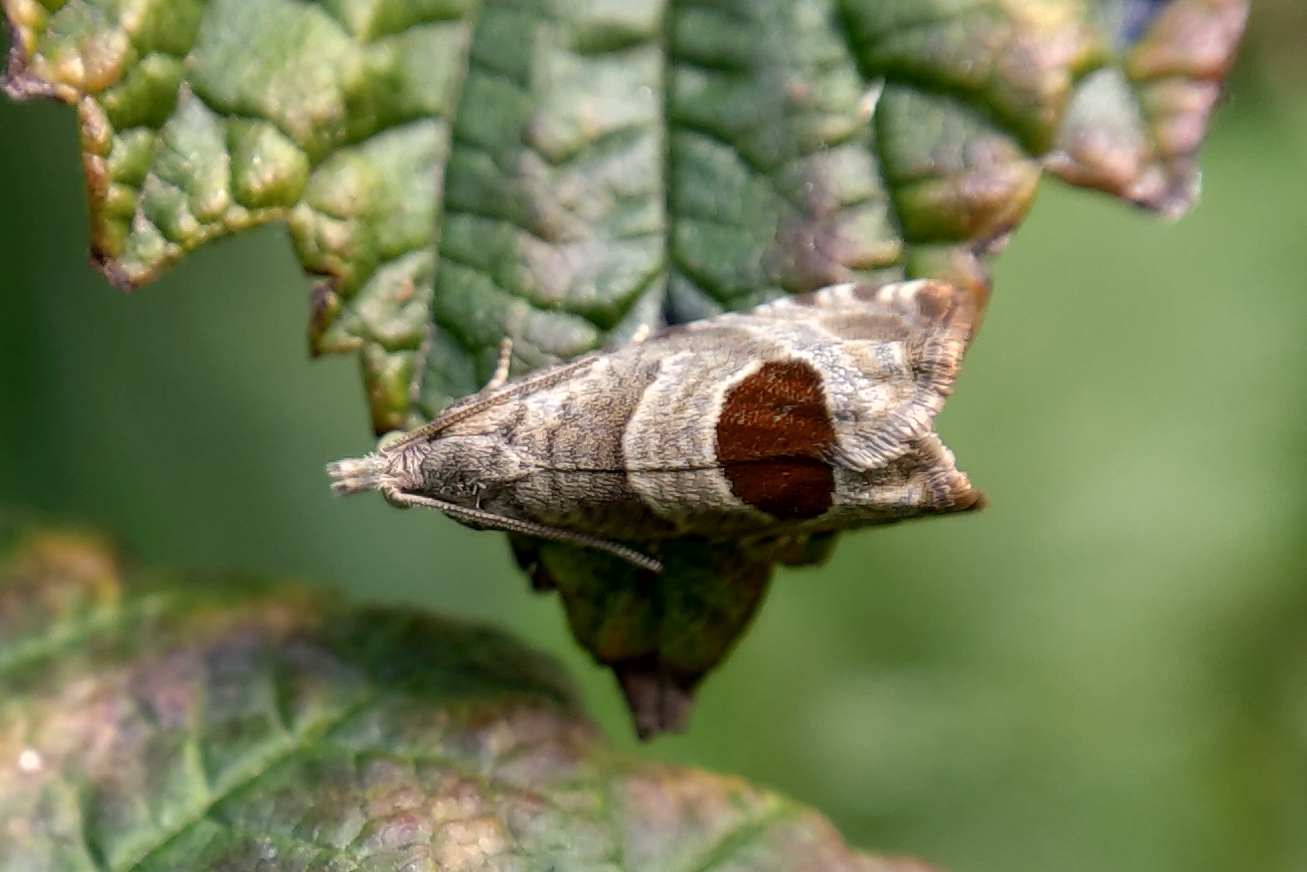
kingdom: Animalia
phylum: Arthropoda
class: Insecta
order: Lepidoptera
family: Tortricidae
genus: Notocelia
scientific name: Notocelia uddmanniana
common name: Bramble shoot moth
